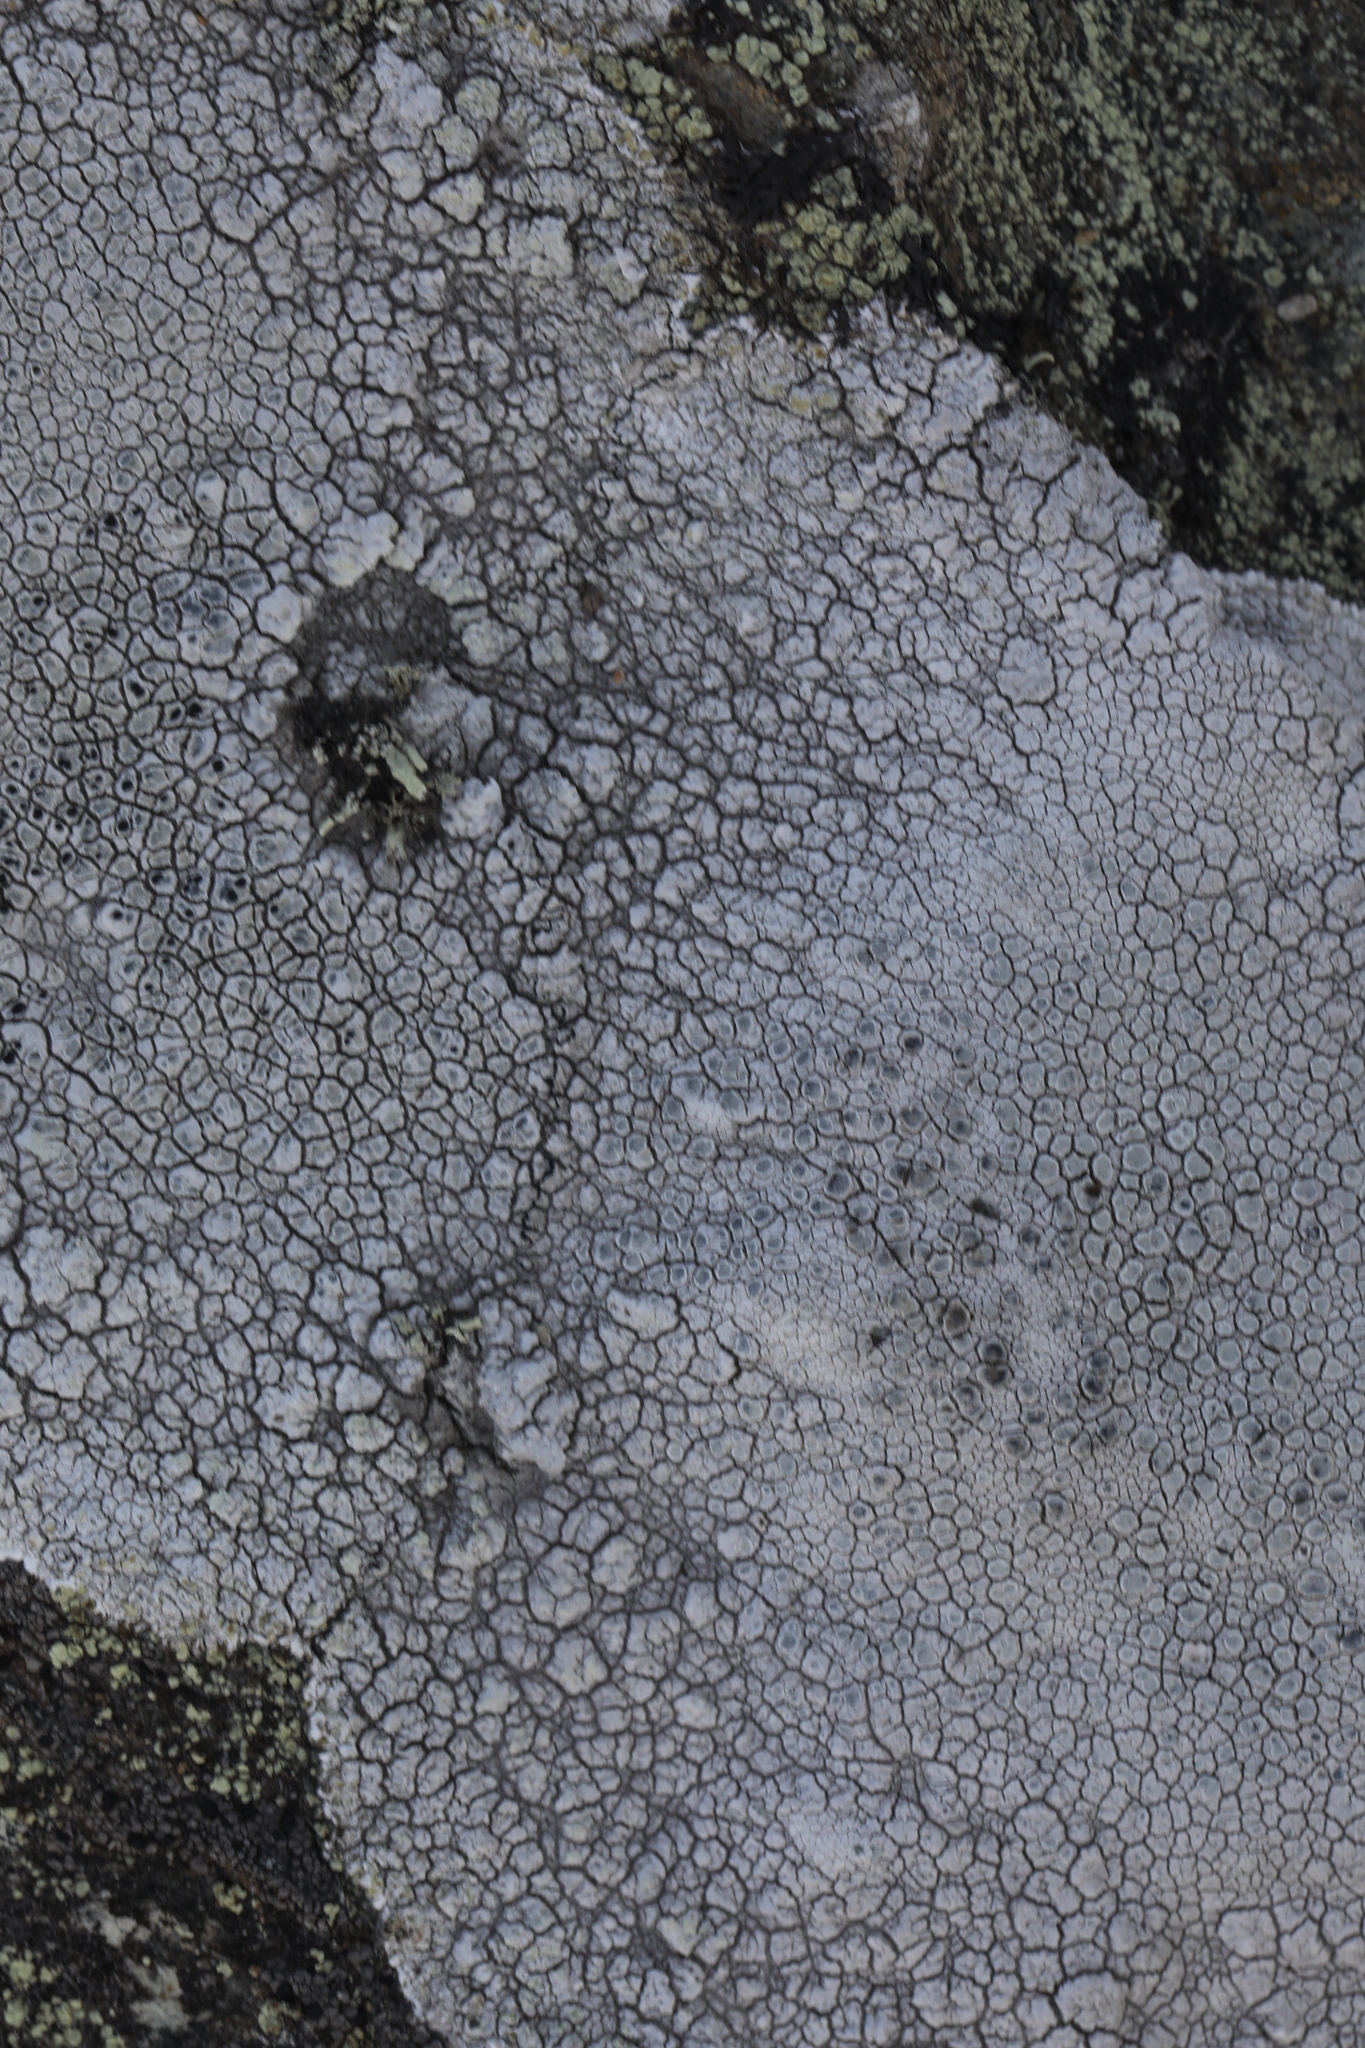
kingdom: Fungi
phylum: Ascomycota
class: Lecanoromycetes
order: Lecanorales
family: Lecanoraceae
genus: Glaucomaria
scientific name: Glaucomaria rupicola
